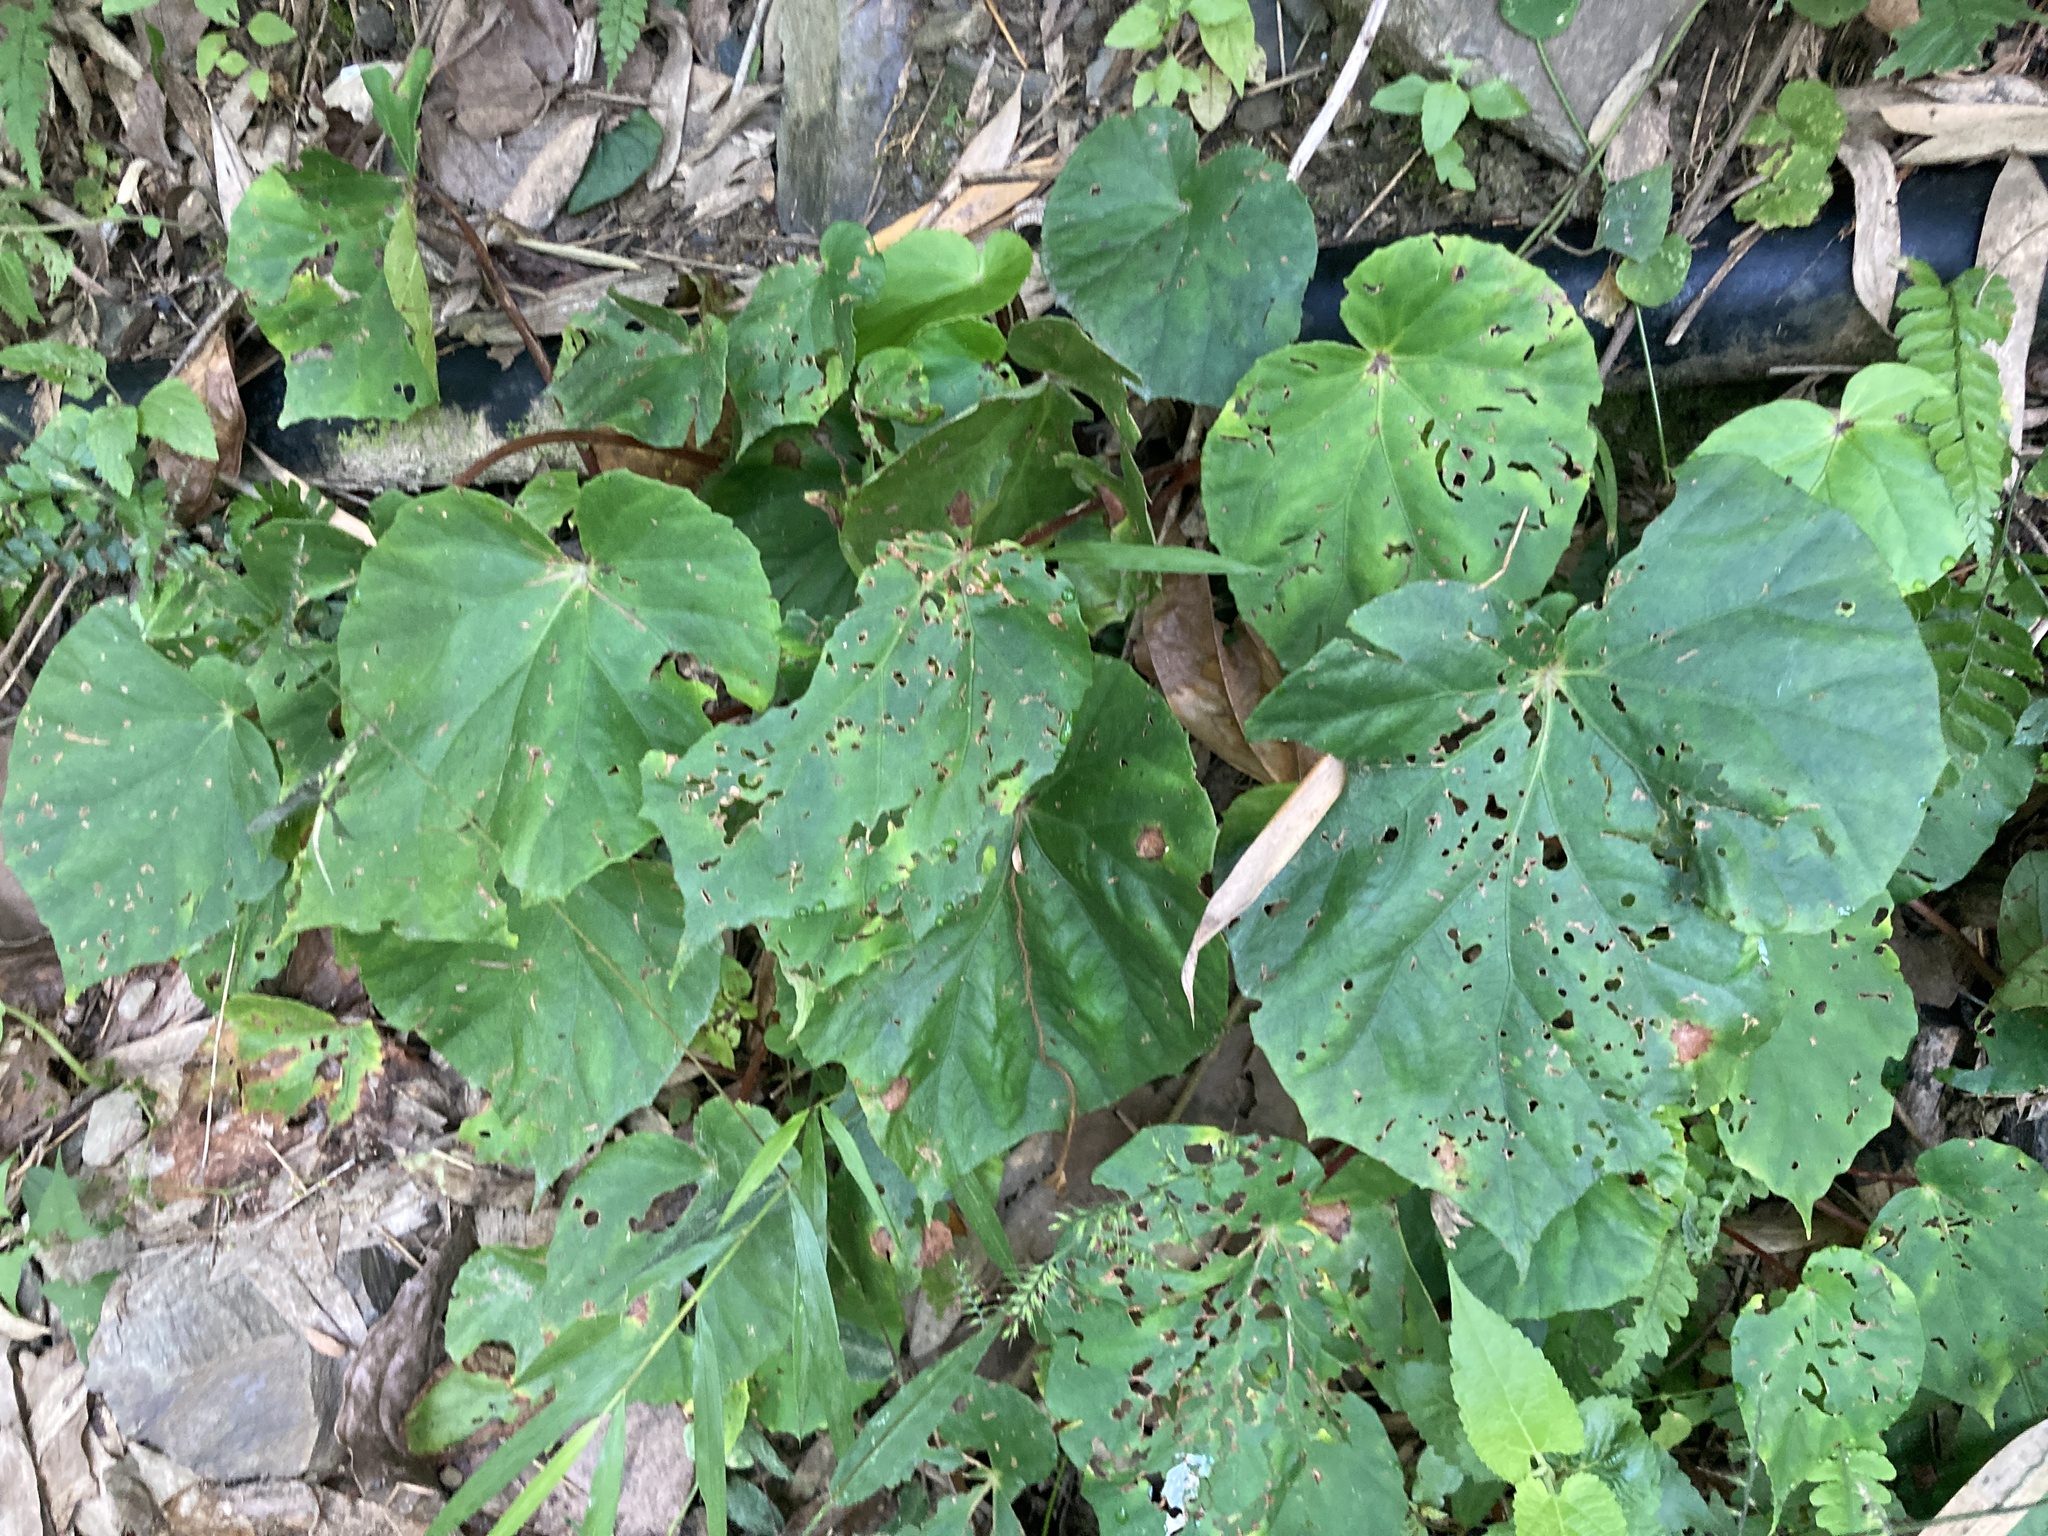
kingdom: Plantae
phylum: Tracheophyta
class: Magnoliopsida
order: Cucurbitales
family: Begoniaceae
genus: Begonia
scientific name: Begonia chitoensis
